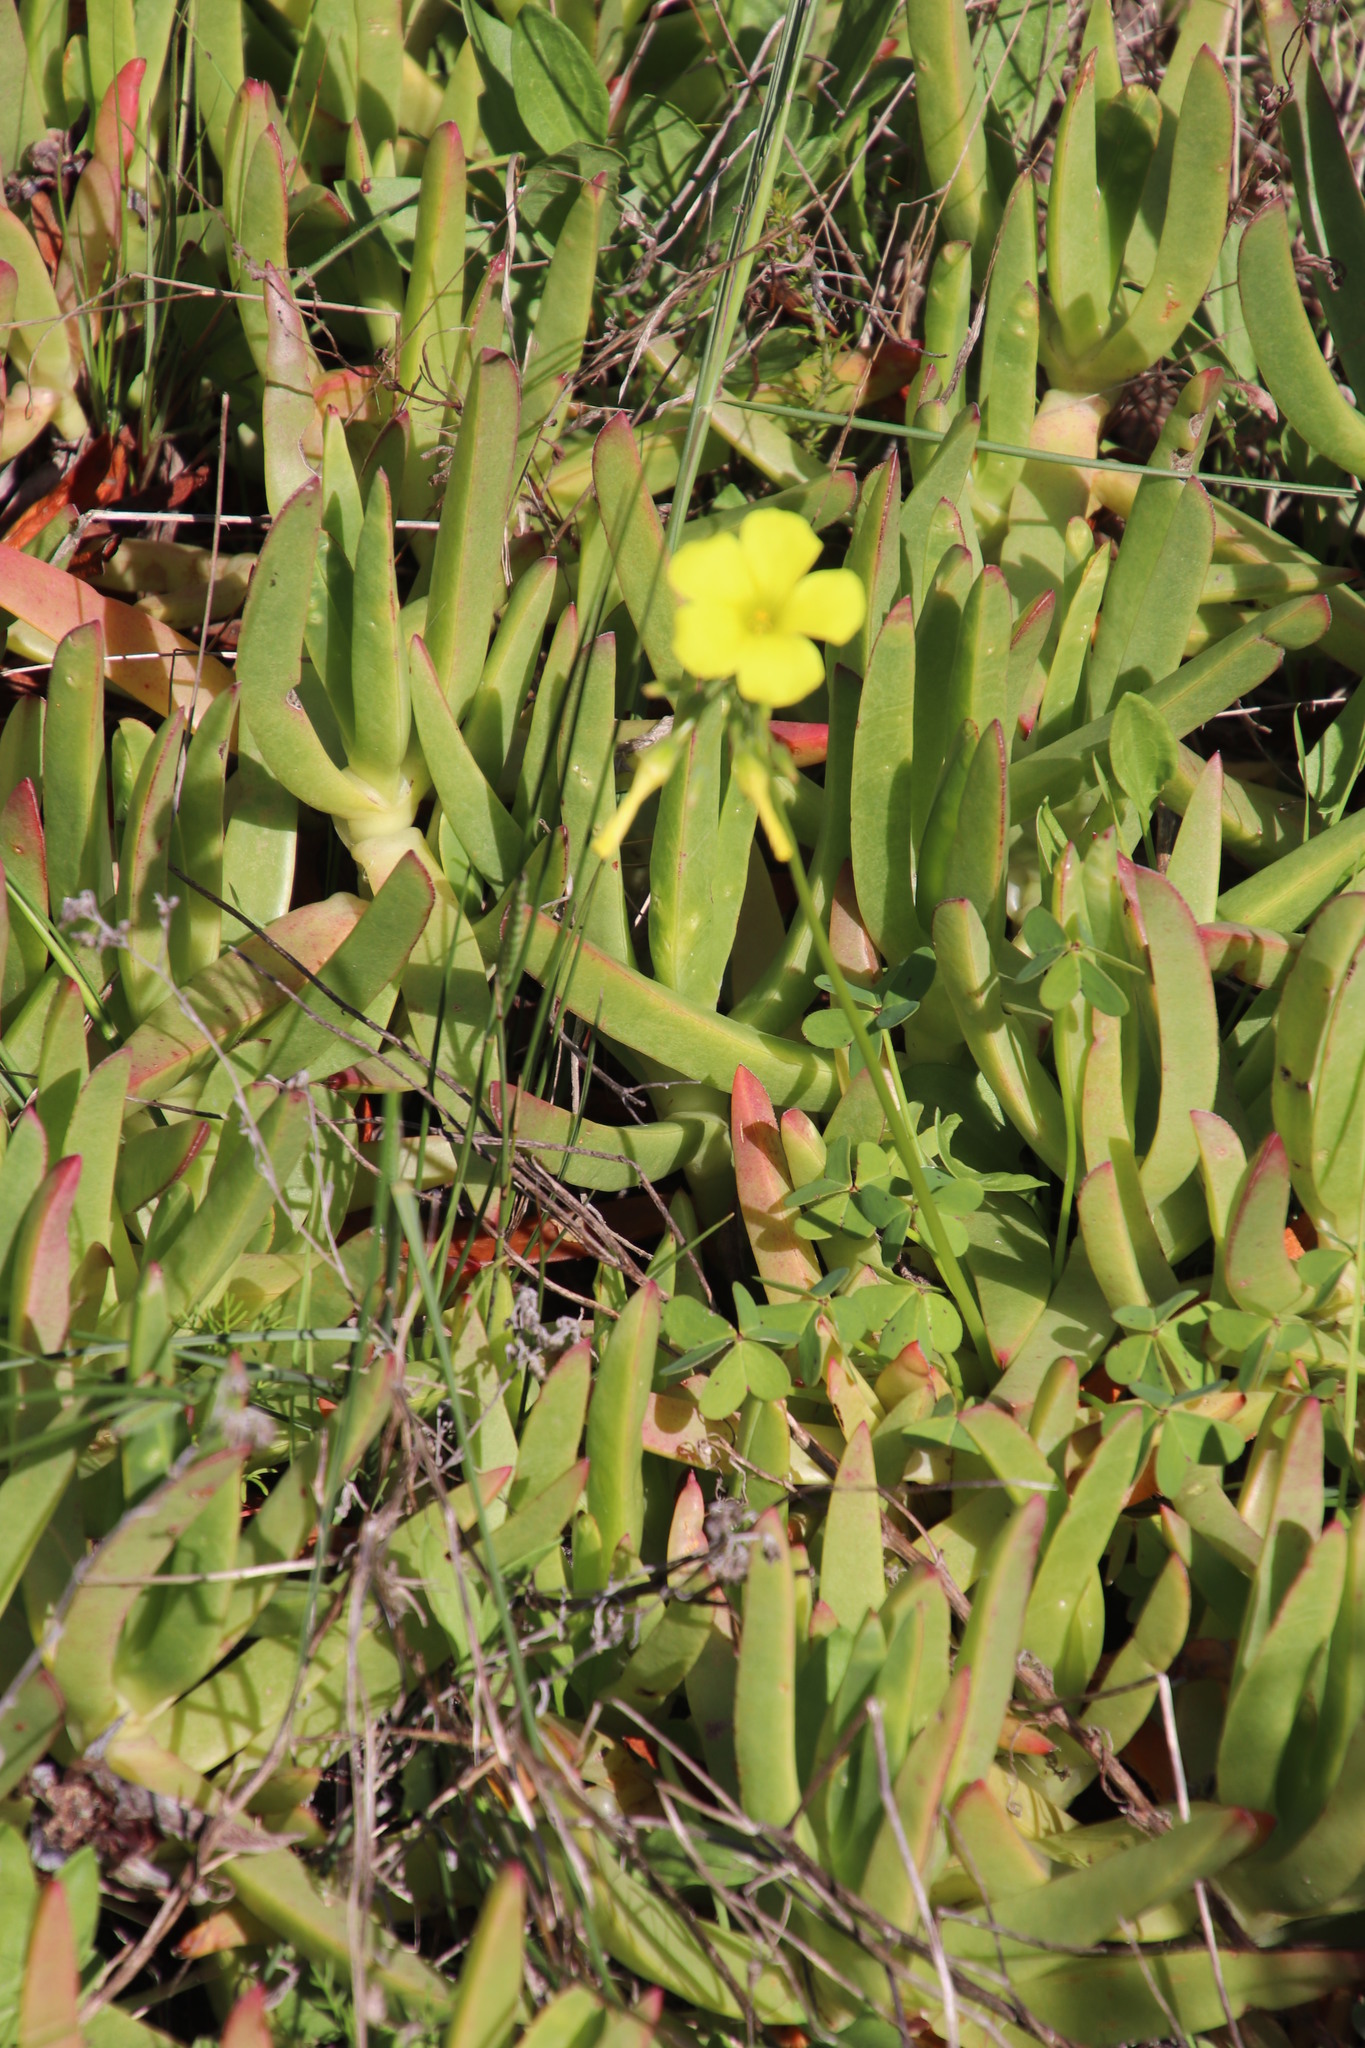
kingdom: Plantae
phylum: Tracheophyta
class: Magnoliopsida
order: Oxalidales
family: Oxalidaceae
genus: Oxalis
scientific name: Oxalis pes-caprae
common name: Bermuda-buttercup
